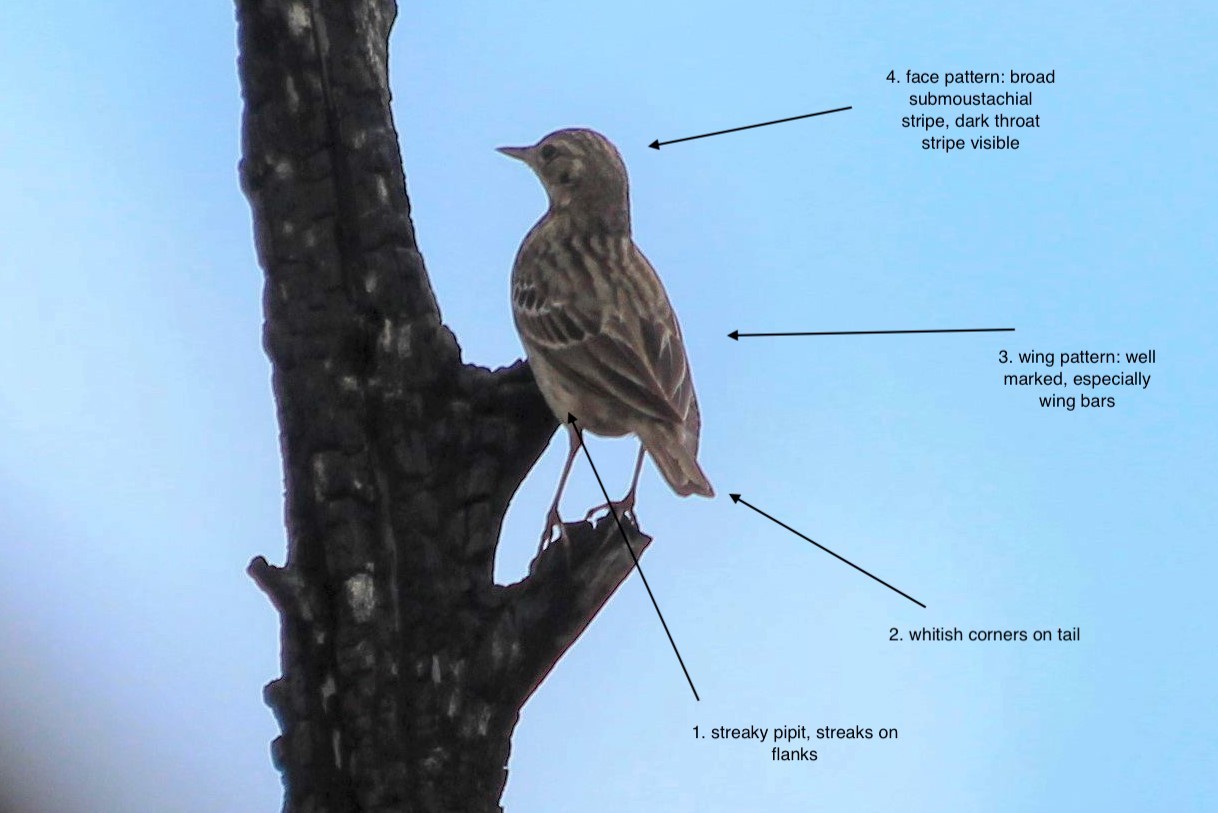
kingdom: Animalia
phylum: Chordata
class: Aves
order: Passeriformes
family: Motacillidae
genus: Anthus
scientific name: Anthus trivialis
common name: Tree pipit
